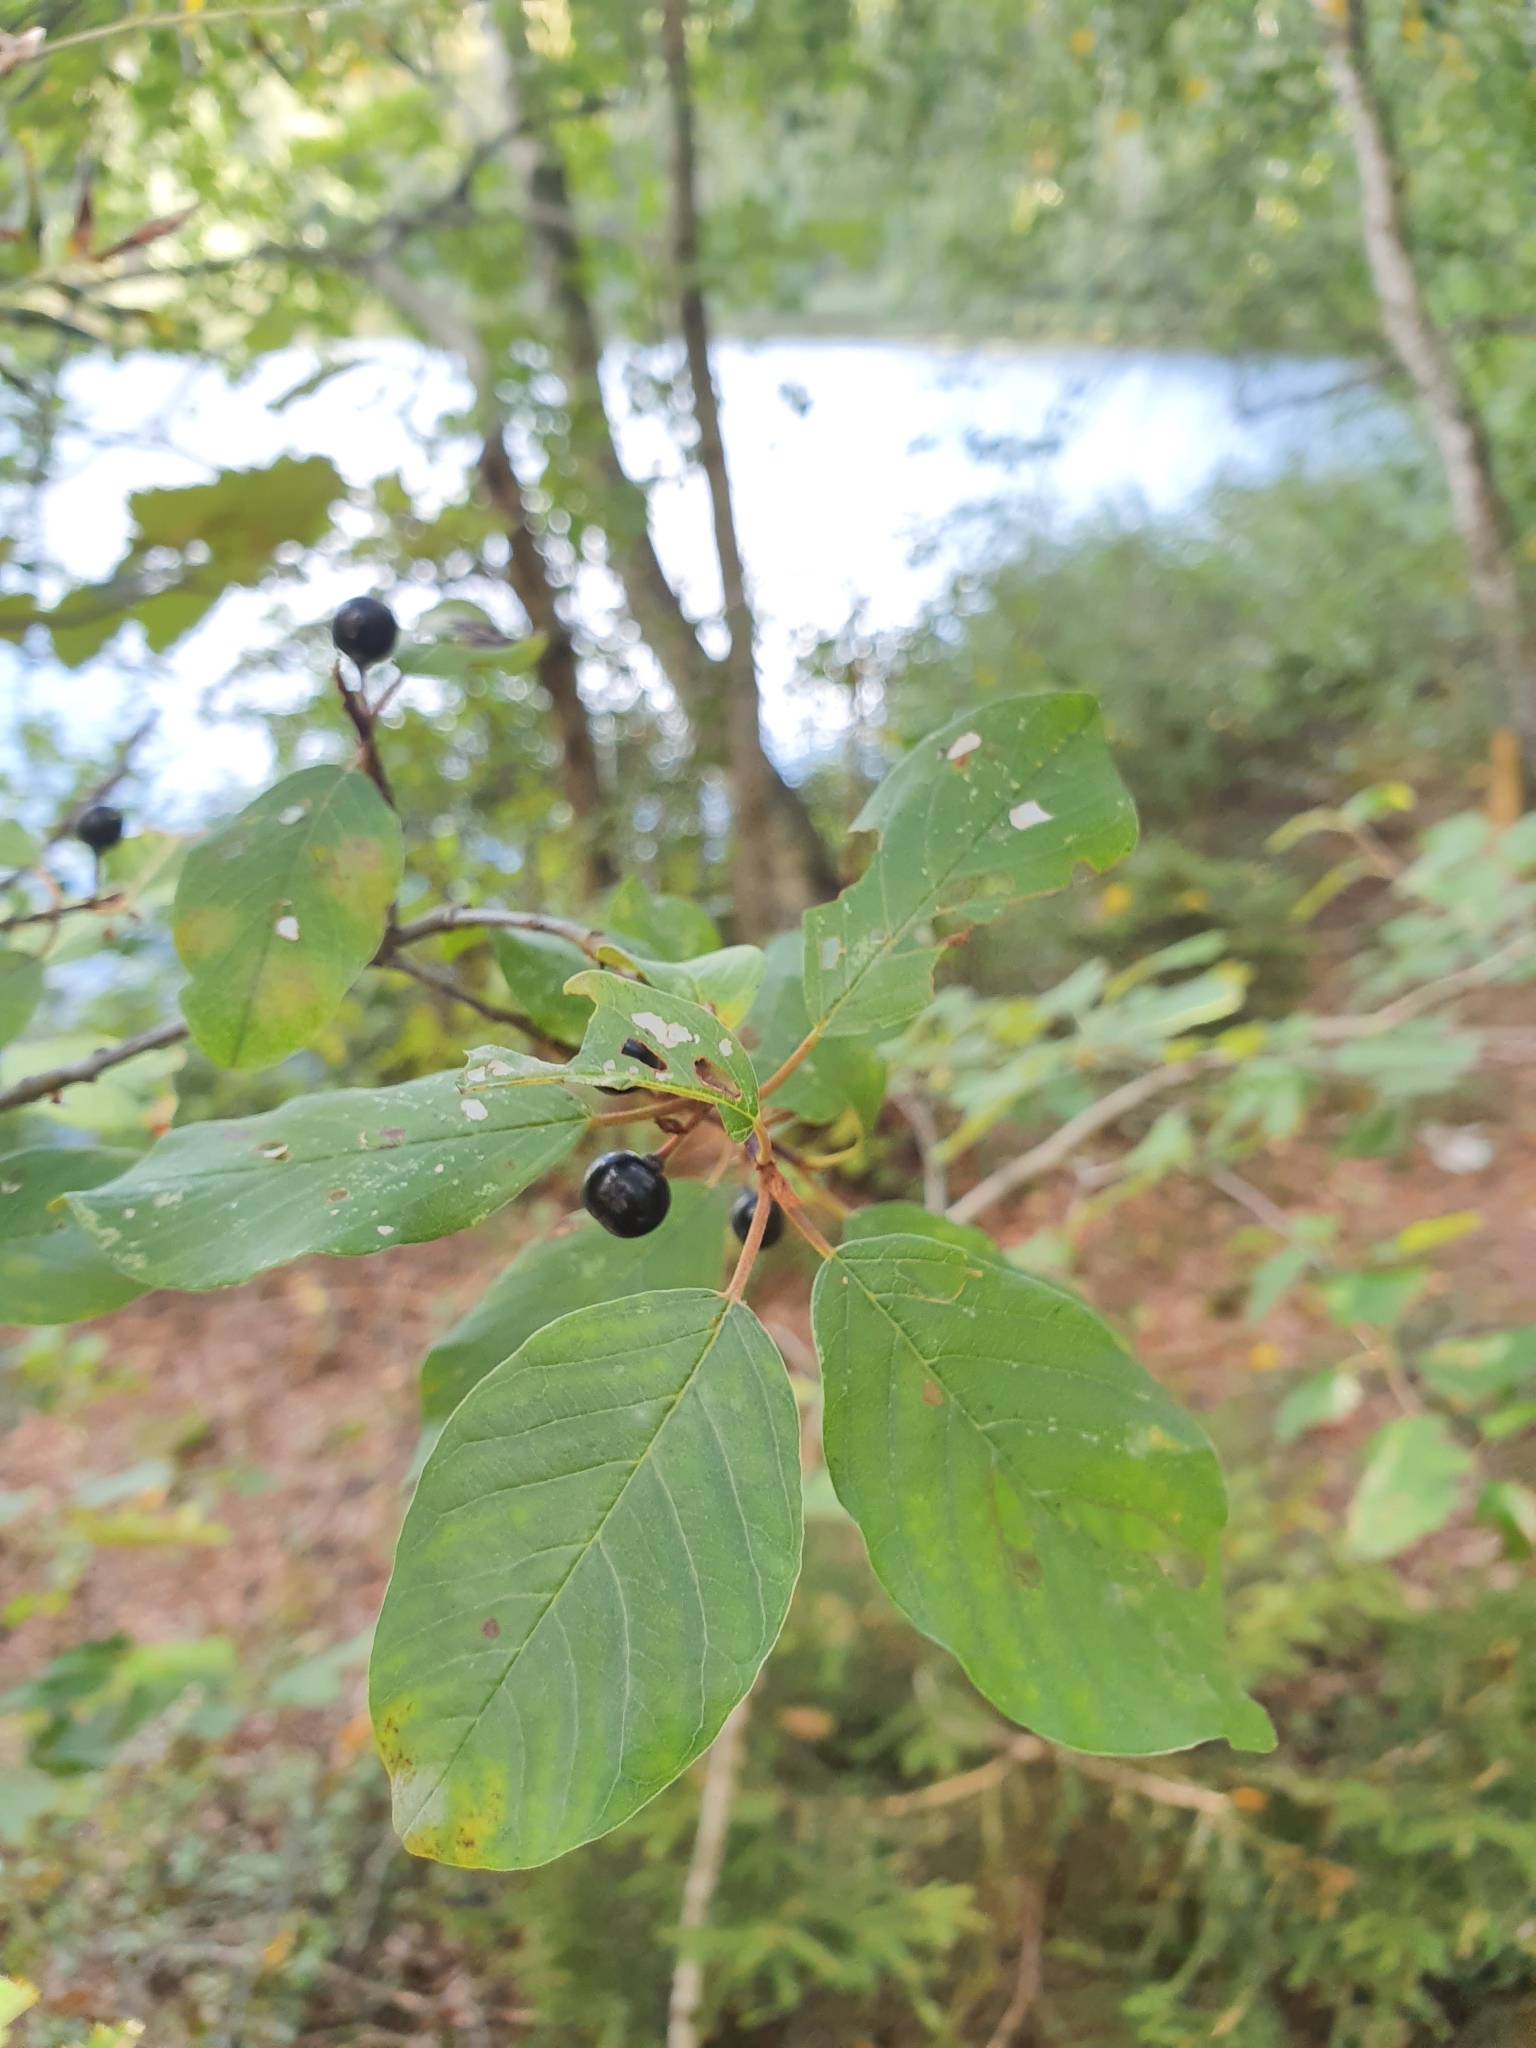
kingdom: Plantae
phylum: Tracheophyta
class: Magnoliopsida
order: Rosales
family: Rhamnaceae
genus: Frangula
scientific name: Frangula alnus
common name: Alder buckthorn
